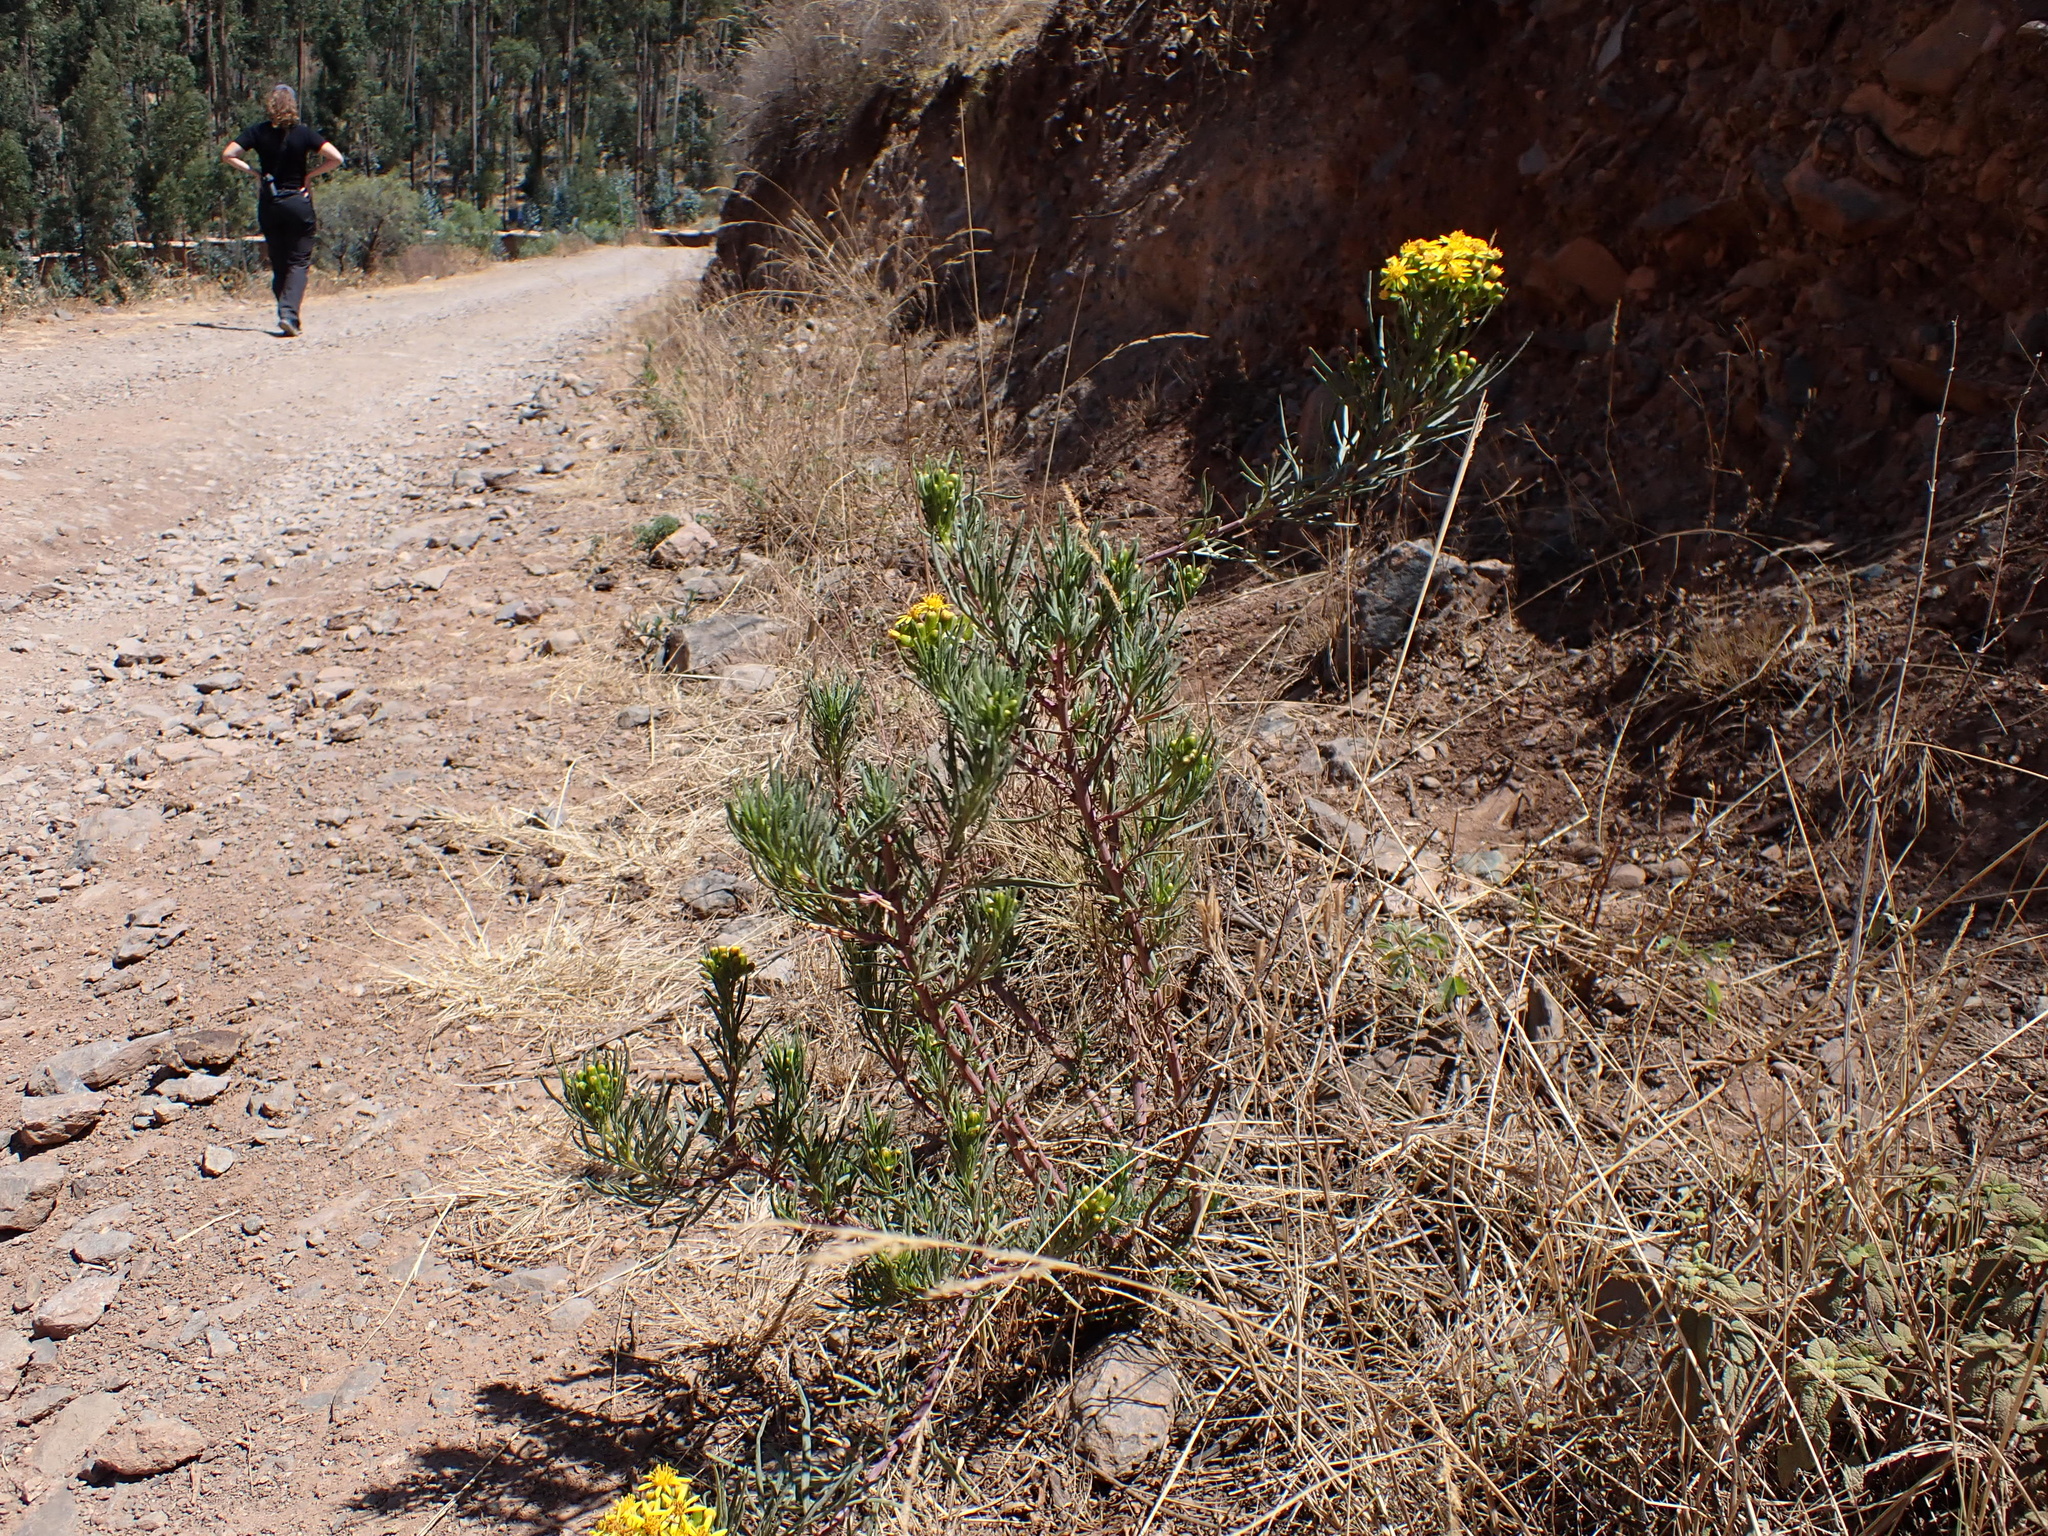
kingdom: Plantae
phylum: Tracheophyta
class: Magnoliopsida
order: Asterales
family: Asteraceae
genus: Senecio
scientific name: Senecio rudbeckiifolius
